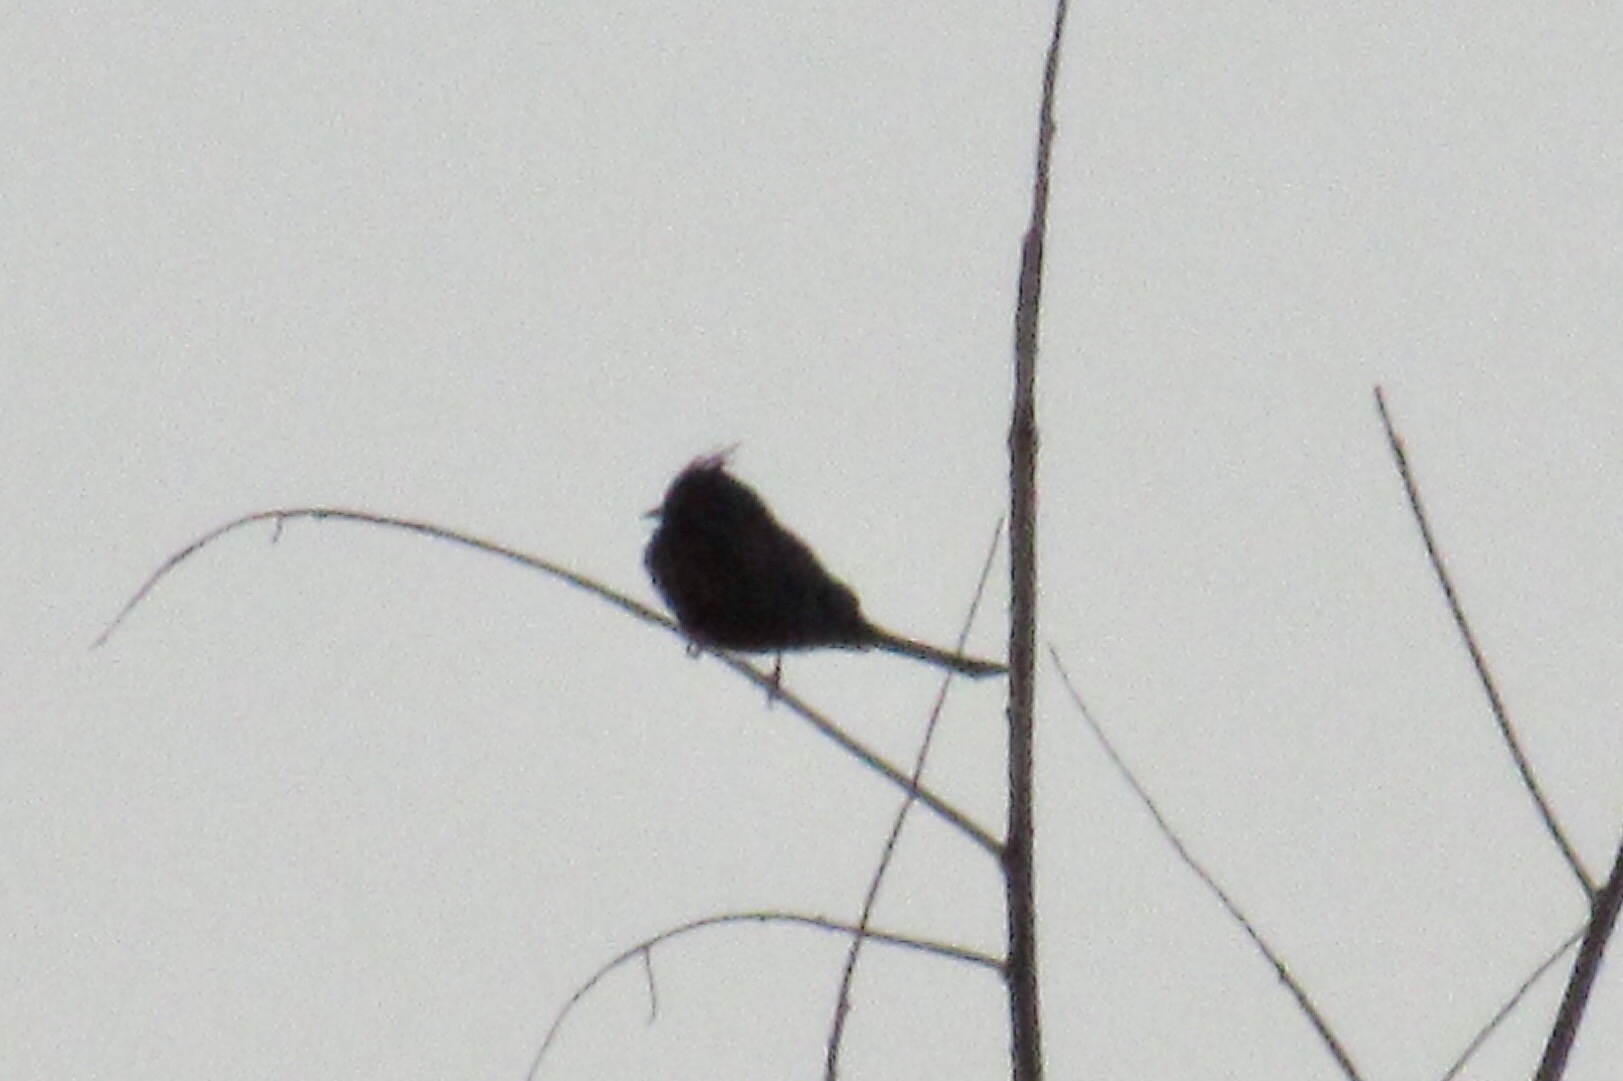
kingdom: Animalia
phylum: Chordata
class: Aves
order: Passeriformes
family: Ptilogonatidae
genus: Phainopepla
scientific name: Phainopepla nitens
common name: Phainopepla
